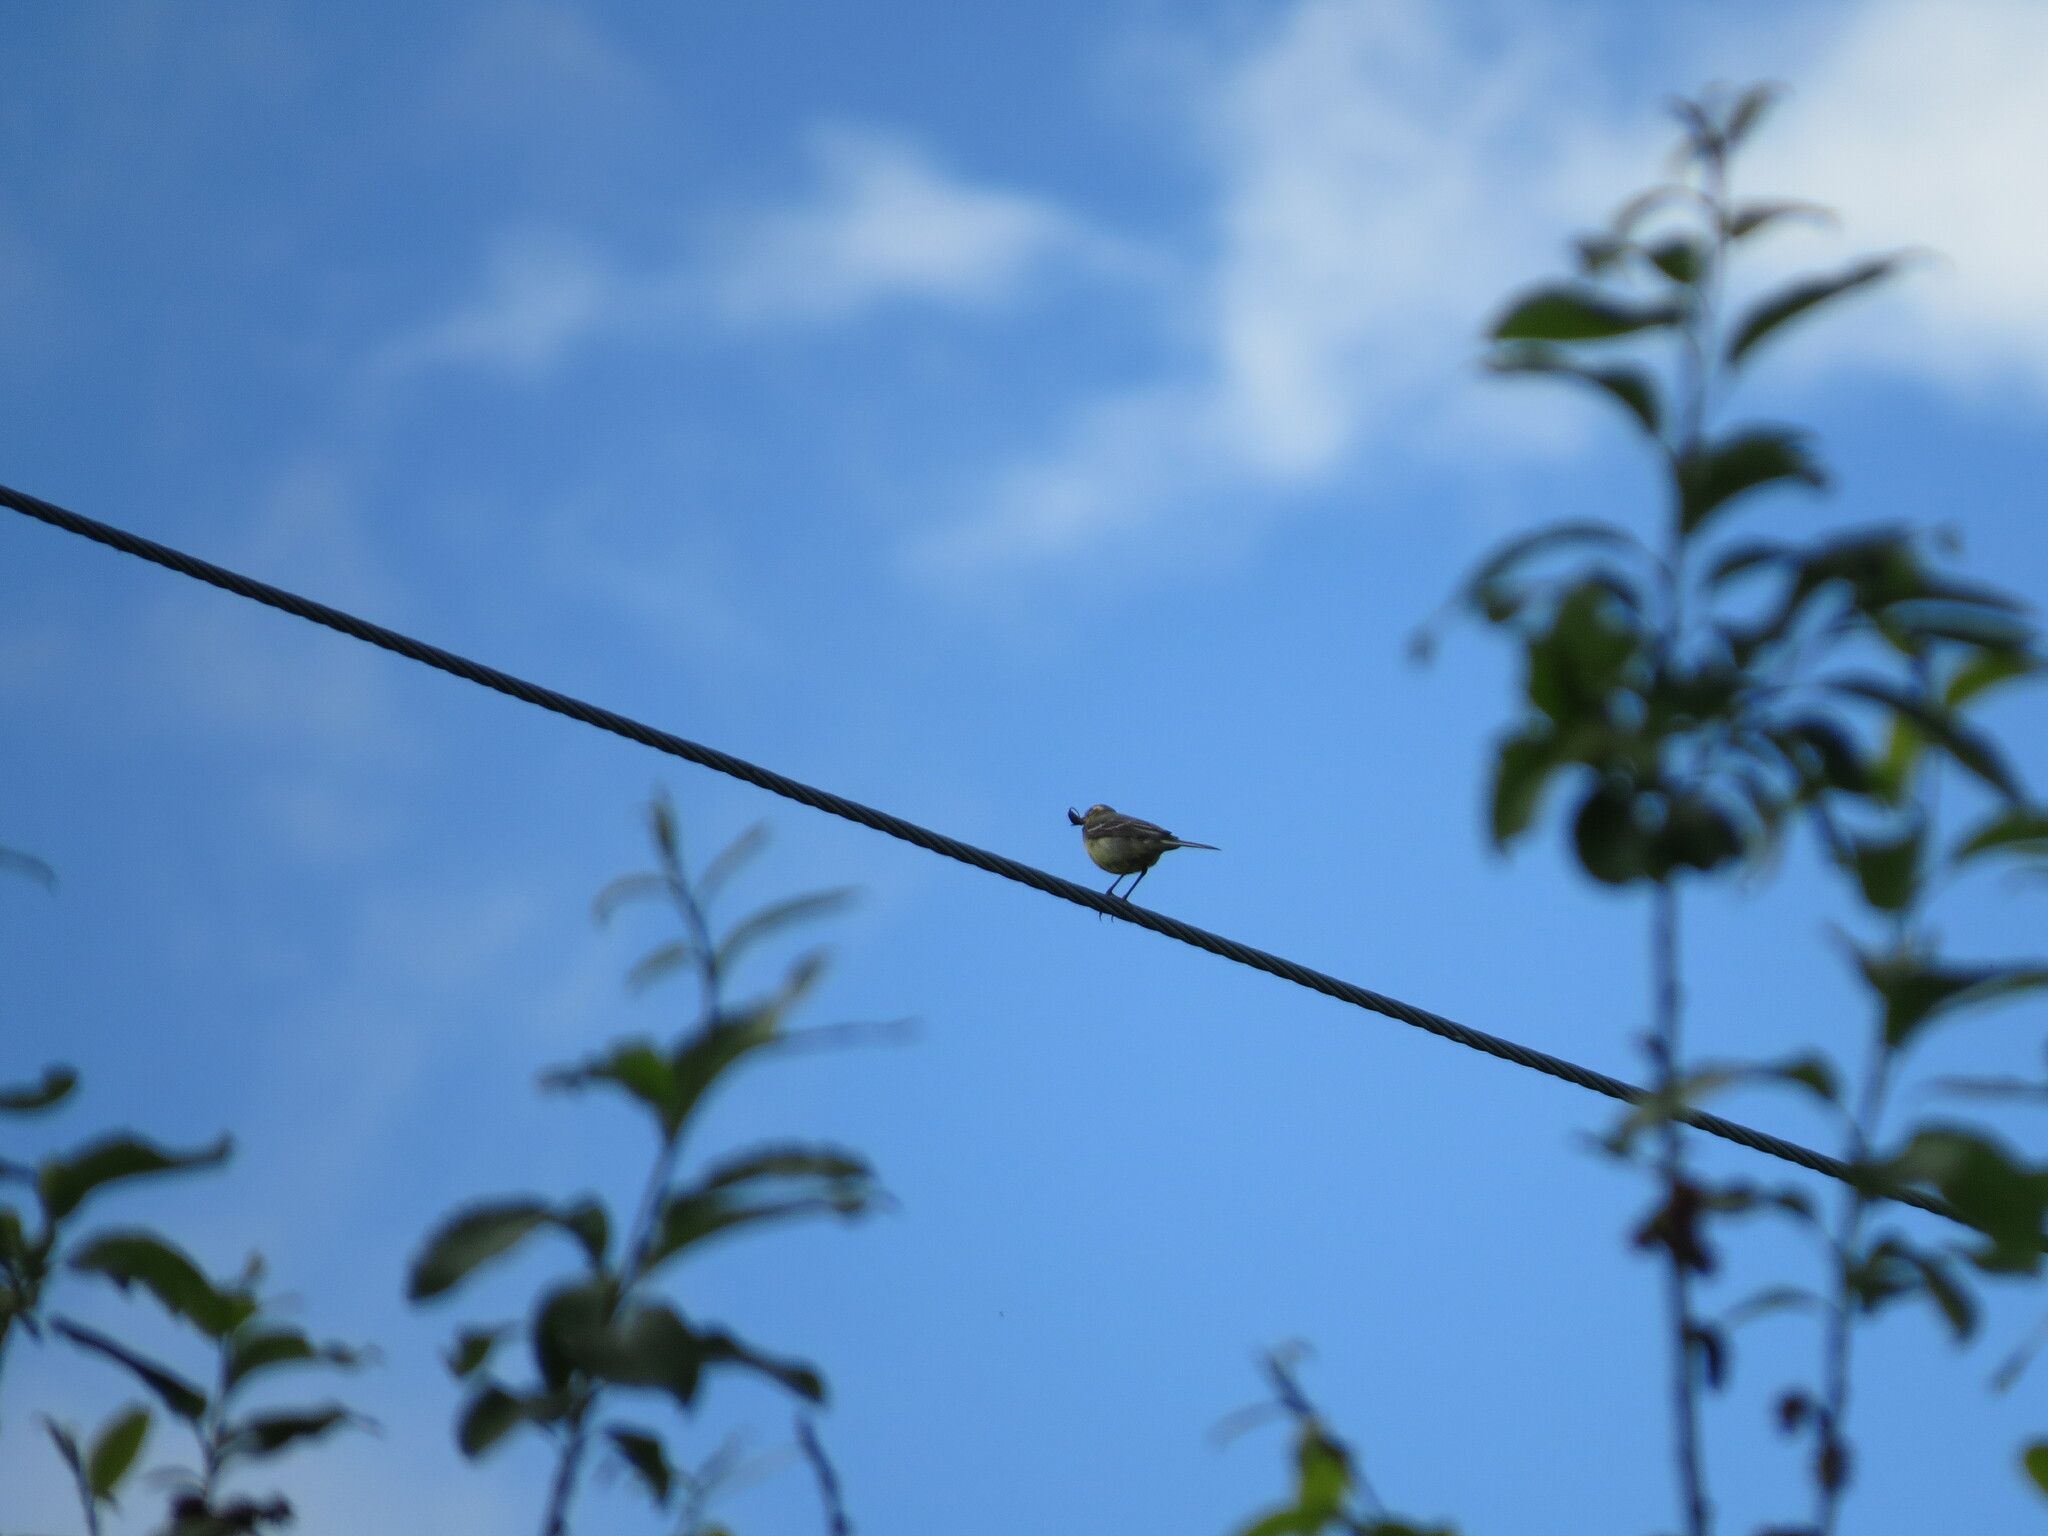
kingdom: Animalia
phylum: Chordata
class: Aves
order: Passeriformes
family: Motacillidae
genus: Motacilla
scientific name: Motacilla citreola
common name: Citrine wagtail
